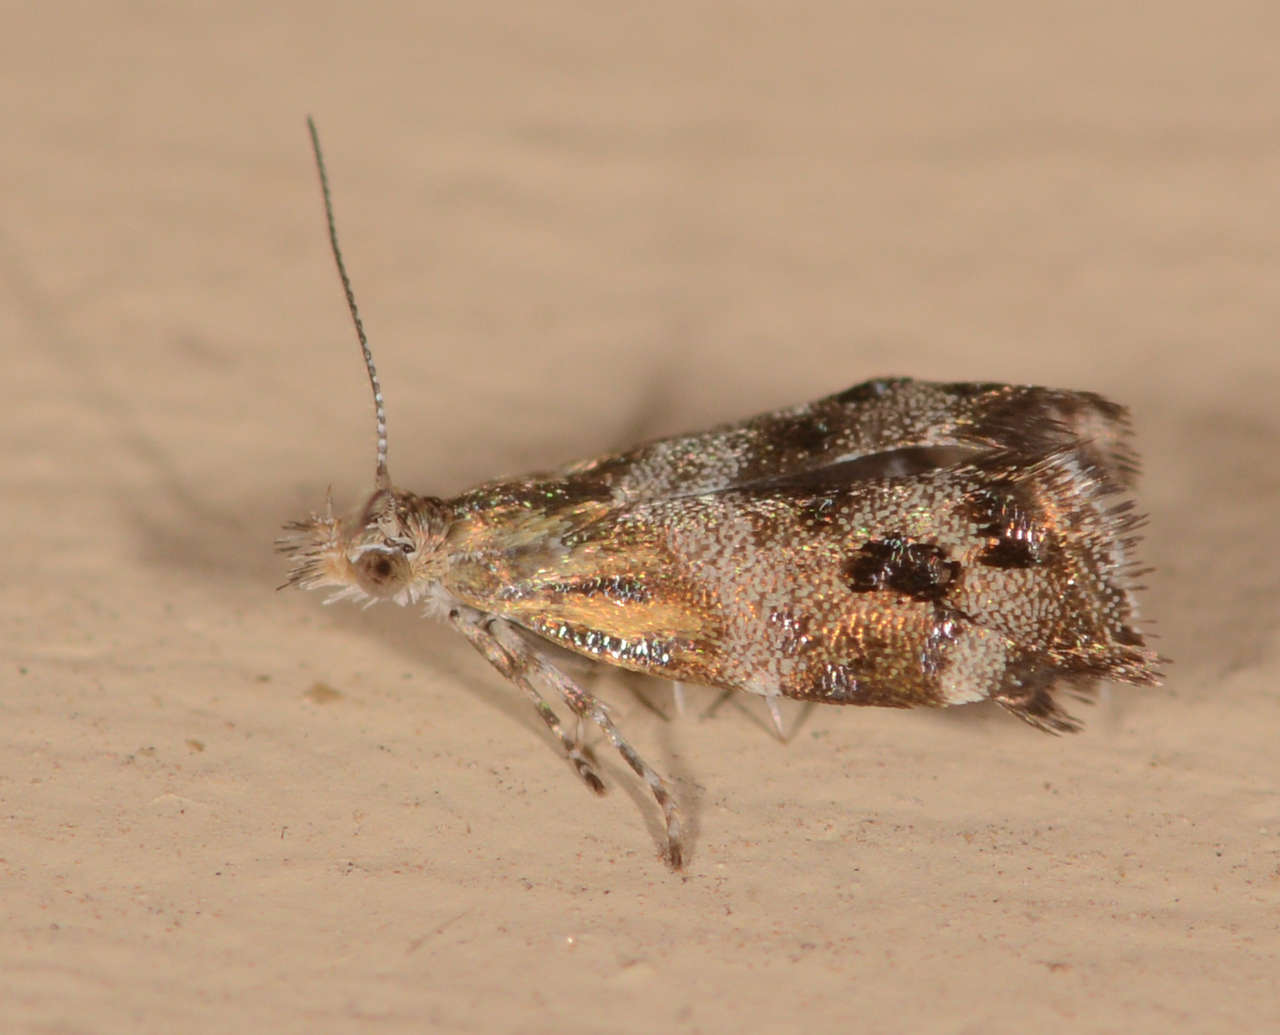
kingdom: Animalia
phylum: Arthropoda
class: Insecta
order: Lepidoptera
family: Choreutidae
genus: Tebenna
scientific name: Tebenna micalis
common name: Vagrant twitcher
